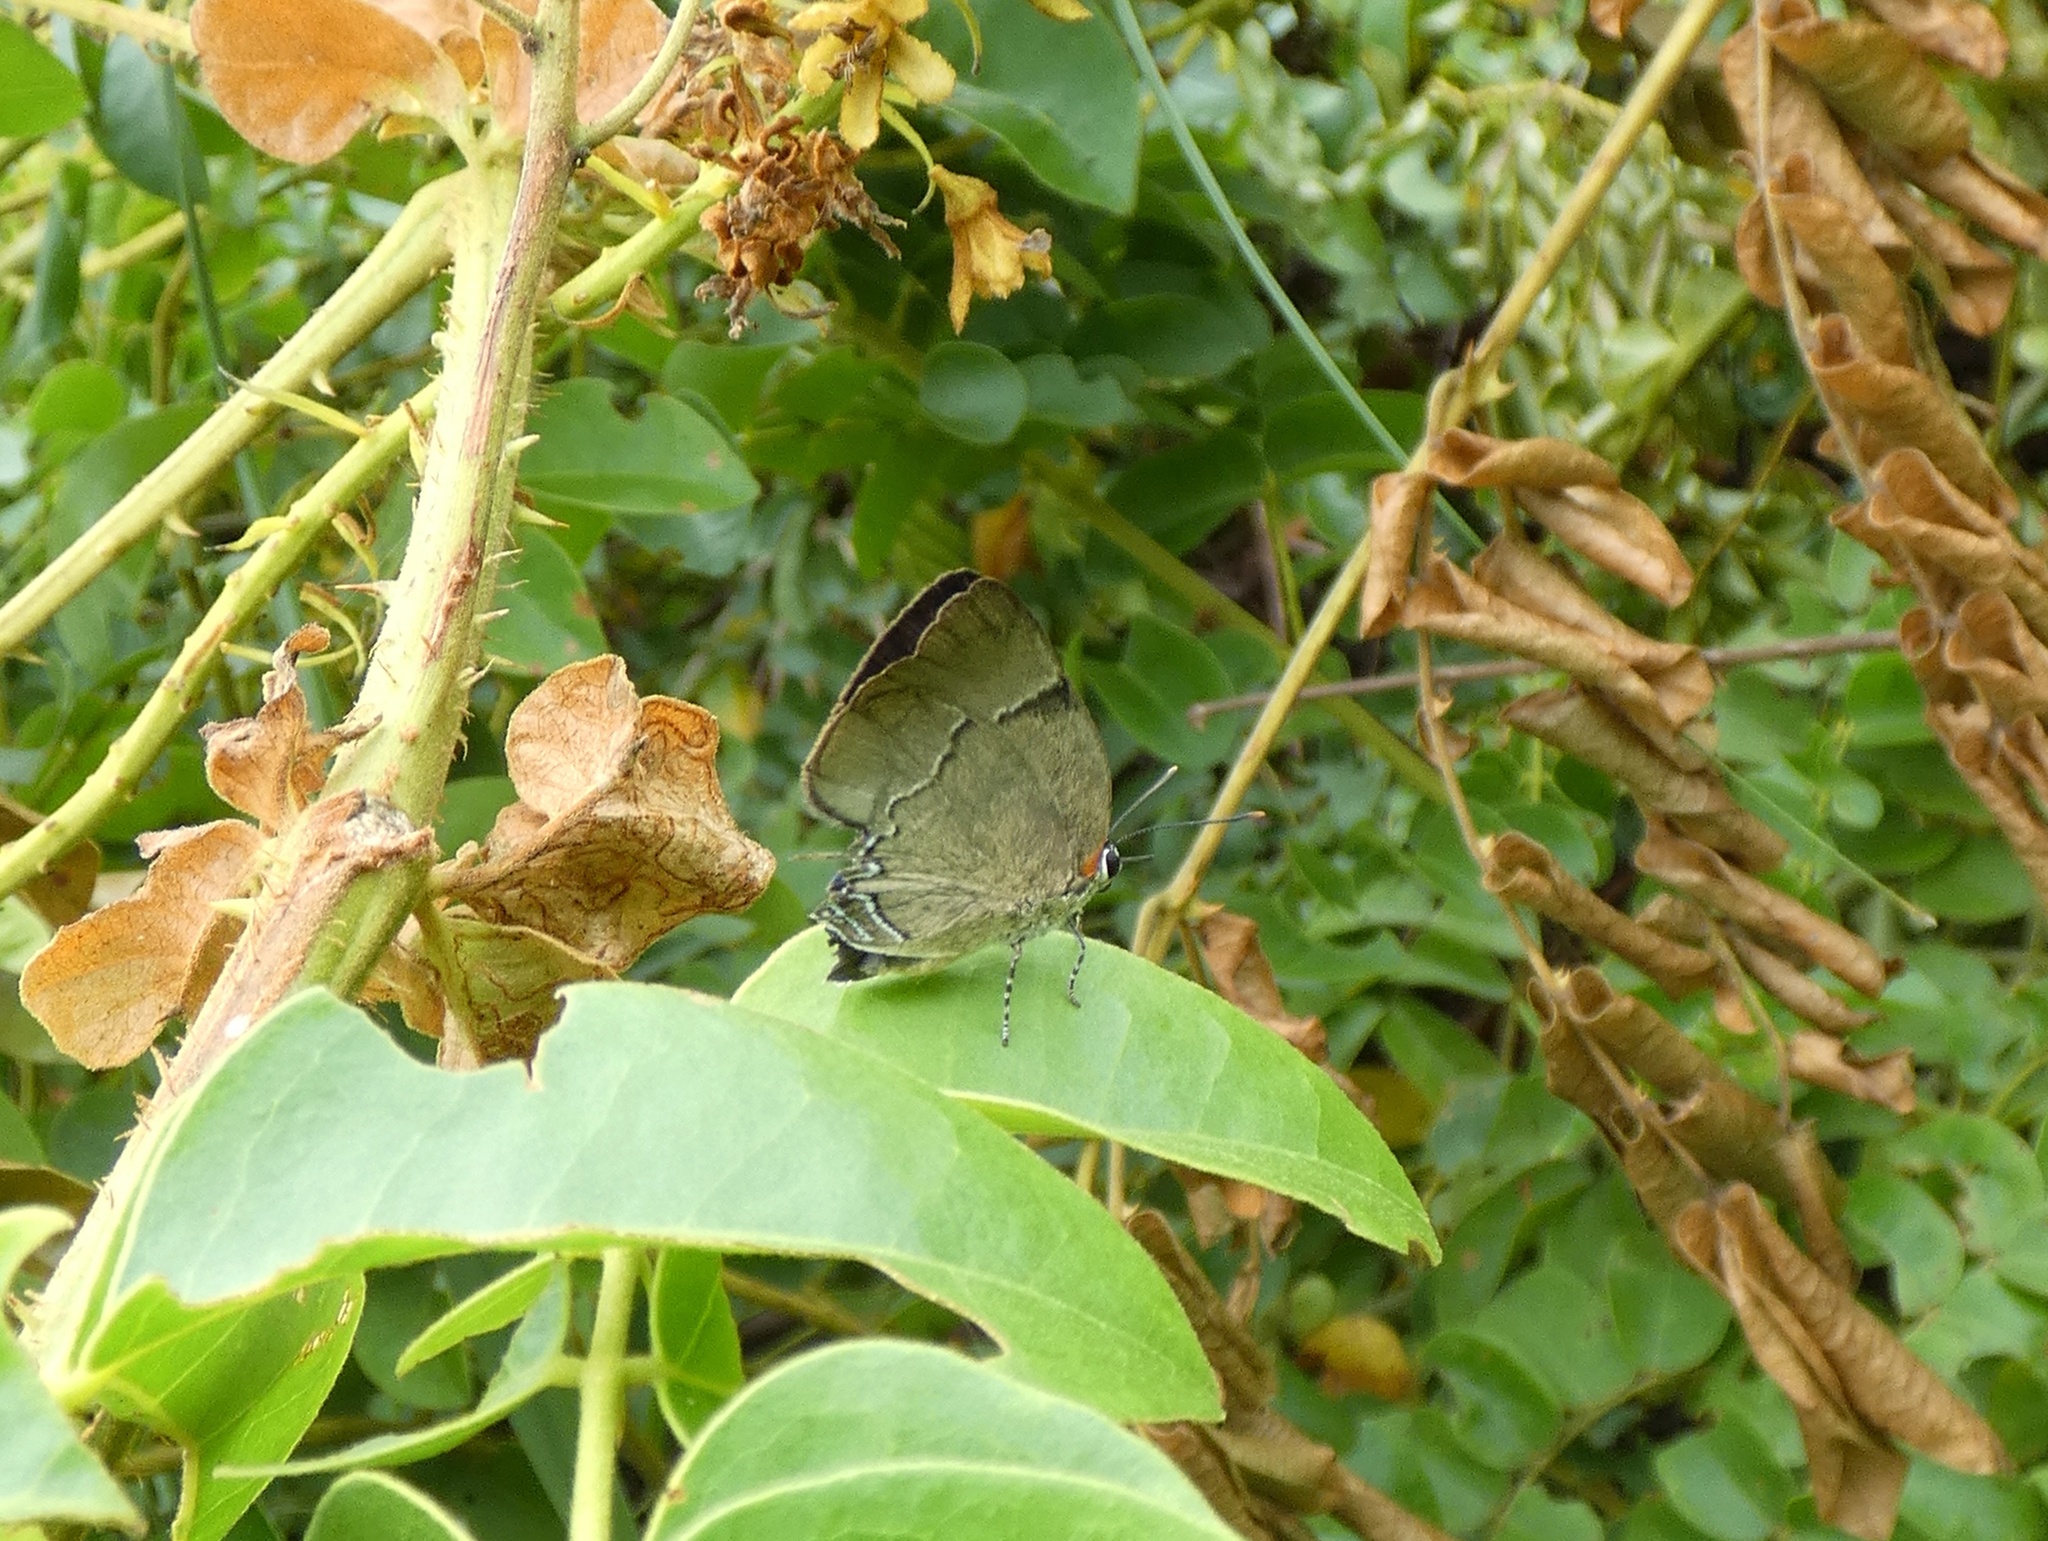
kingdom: Animalia
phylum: Arthropoda
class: Insecta
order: Lepidoptera
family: Lycaenidae
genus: Panthiades
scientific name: Panthiades bitias
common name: Bitias hairstreak
